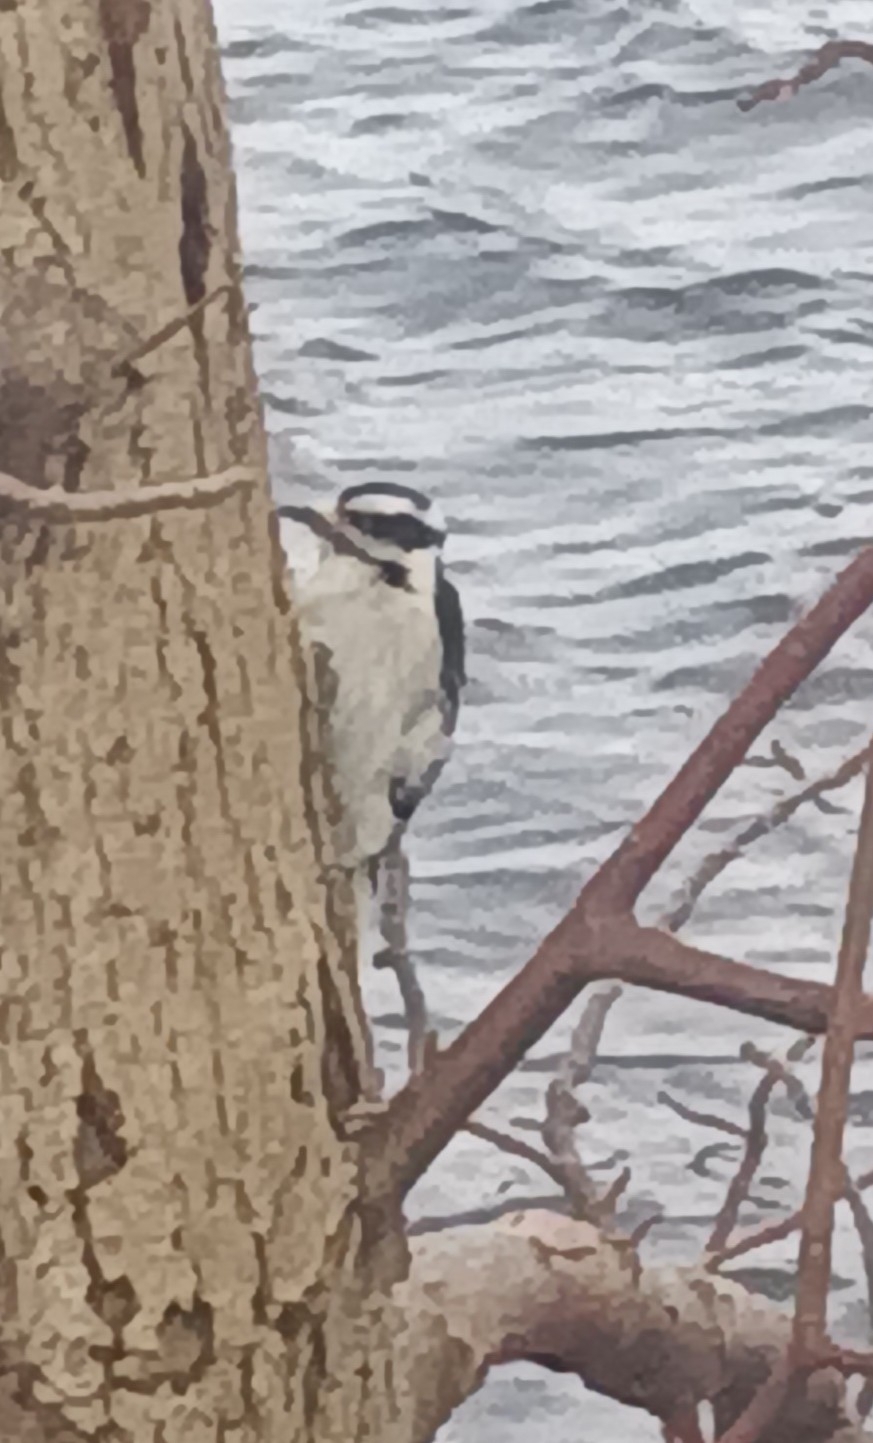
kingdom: Animalia
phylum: Chordata
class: Aves
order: Piciformes
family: Picidae
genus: Dryobates
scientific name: Dryobates pubescens
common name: Downy woodpecker
